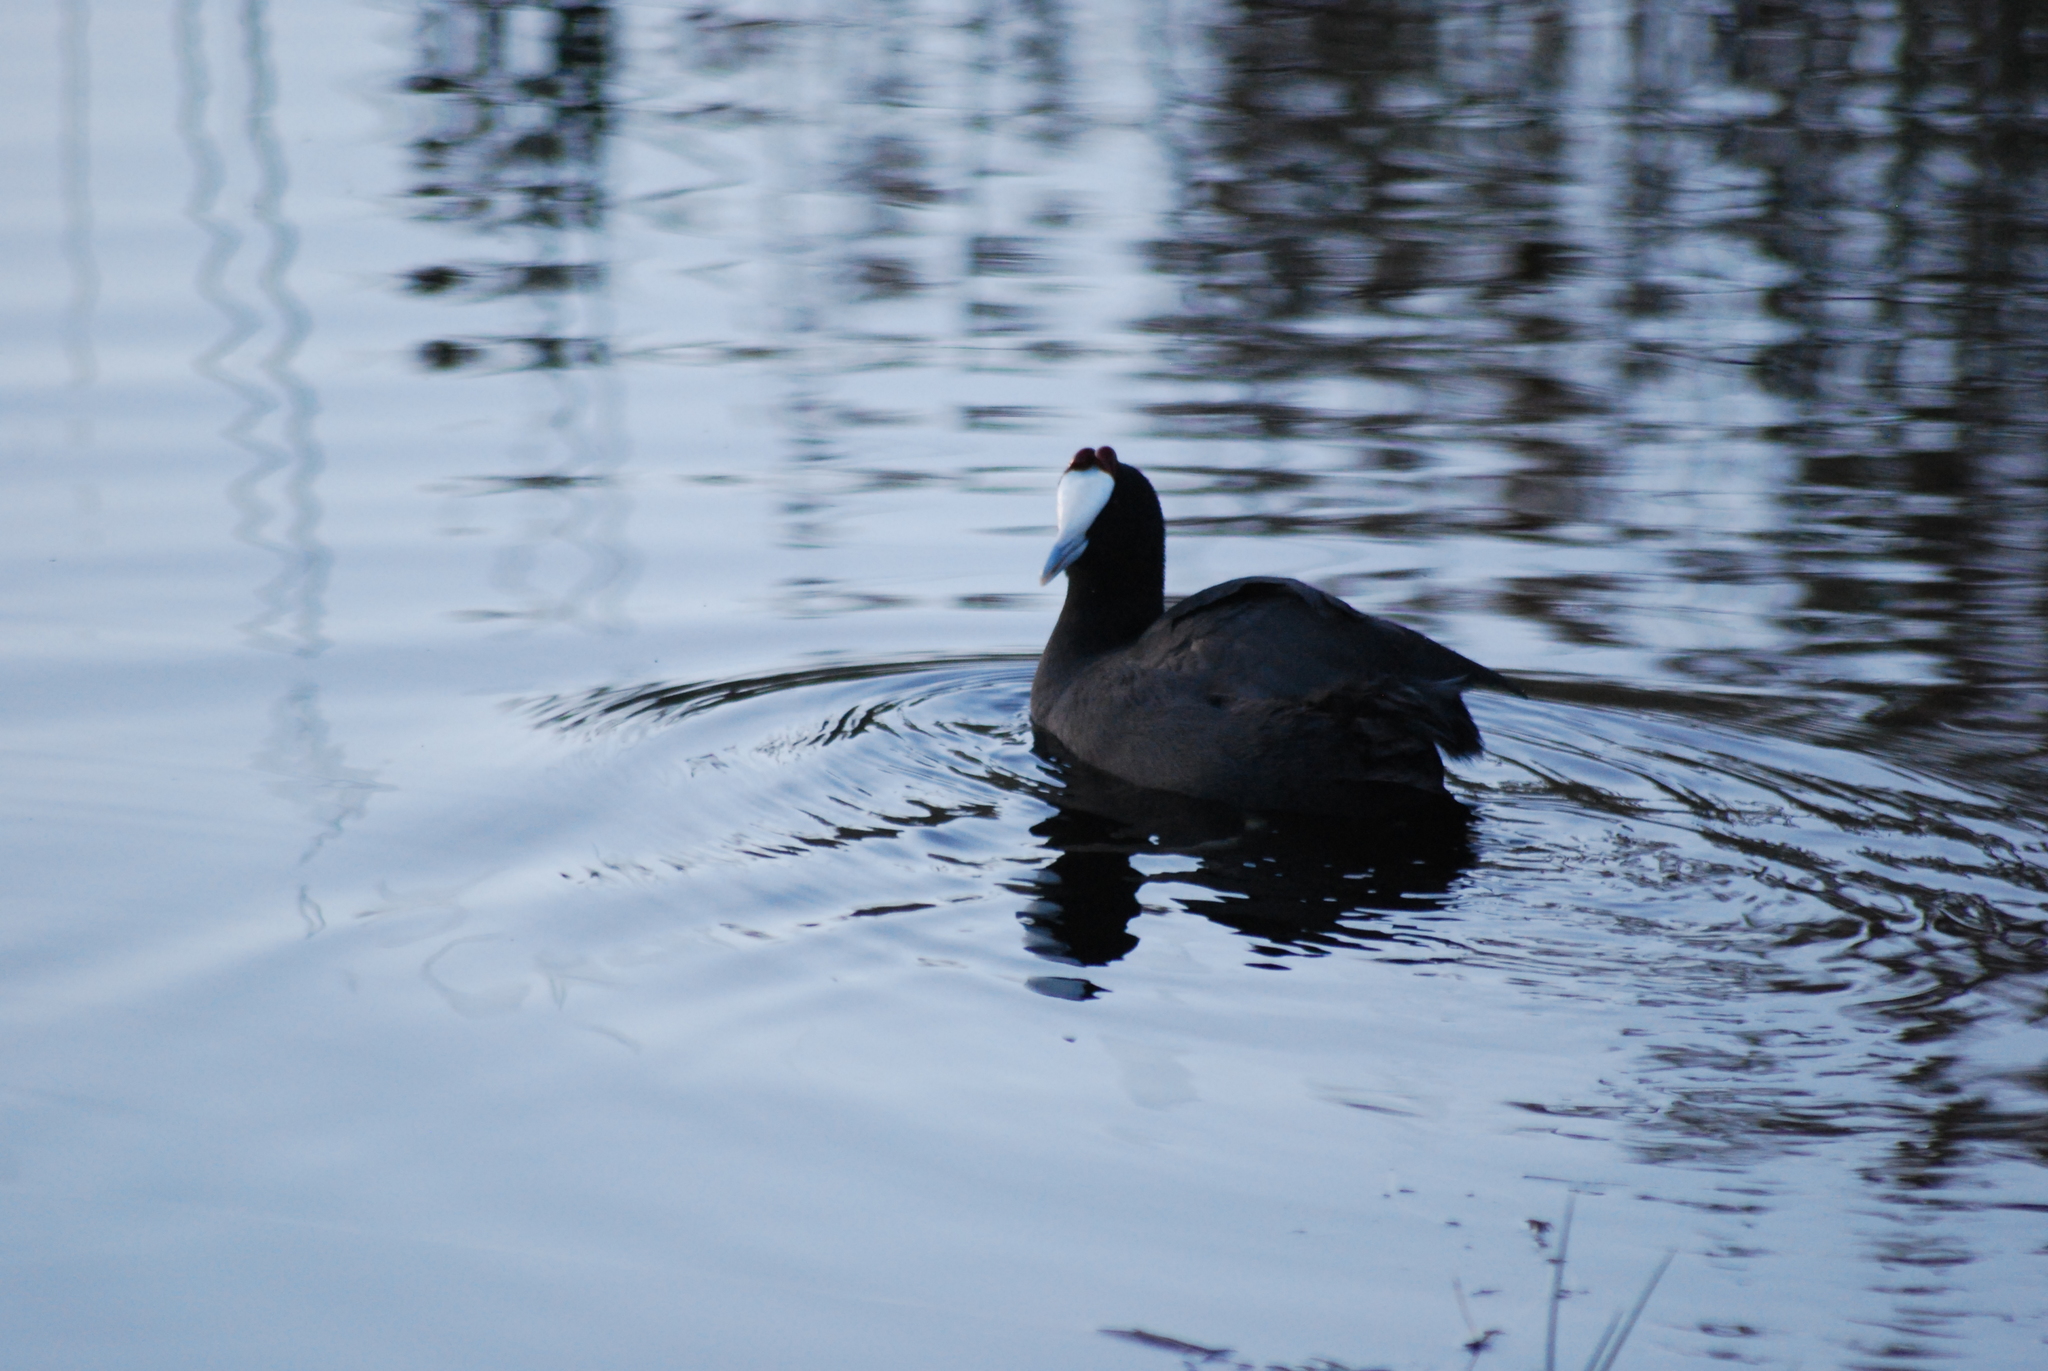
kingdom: Animalia
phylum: Chordata
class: Aves
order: Gruiformes
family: Rallidae
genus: Fulica
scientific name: Fulica cristata
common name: Red-knobbed coot
